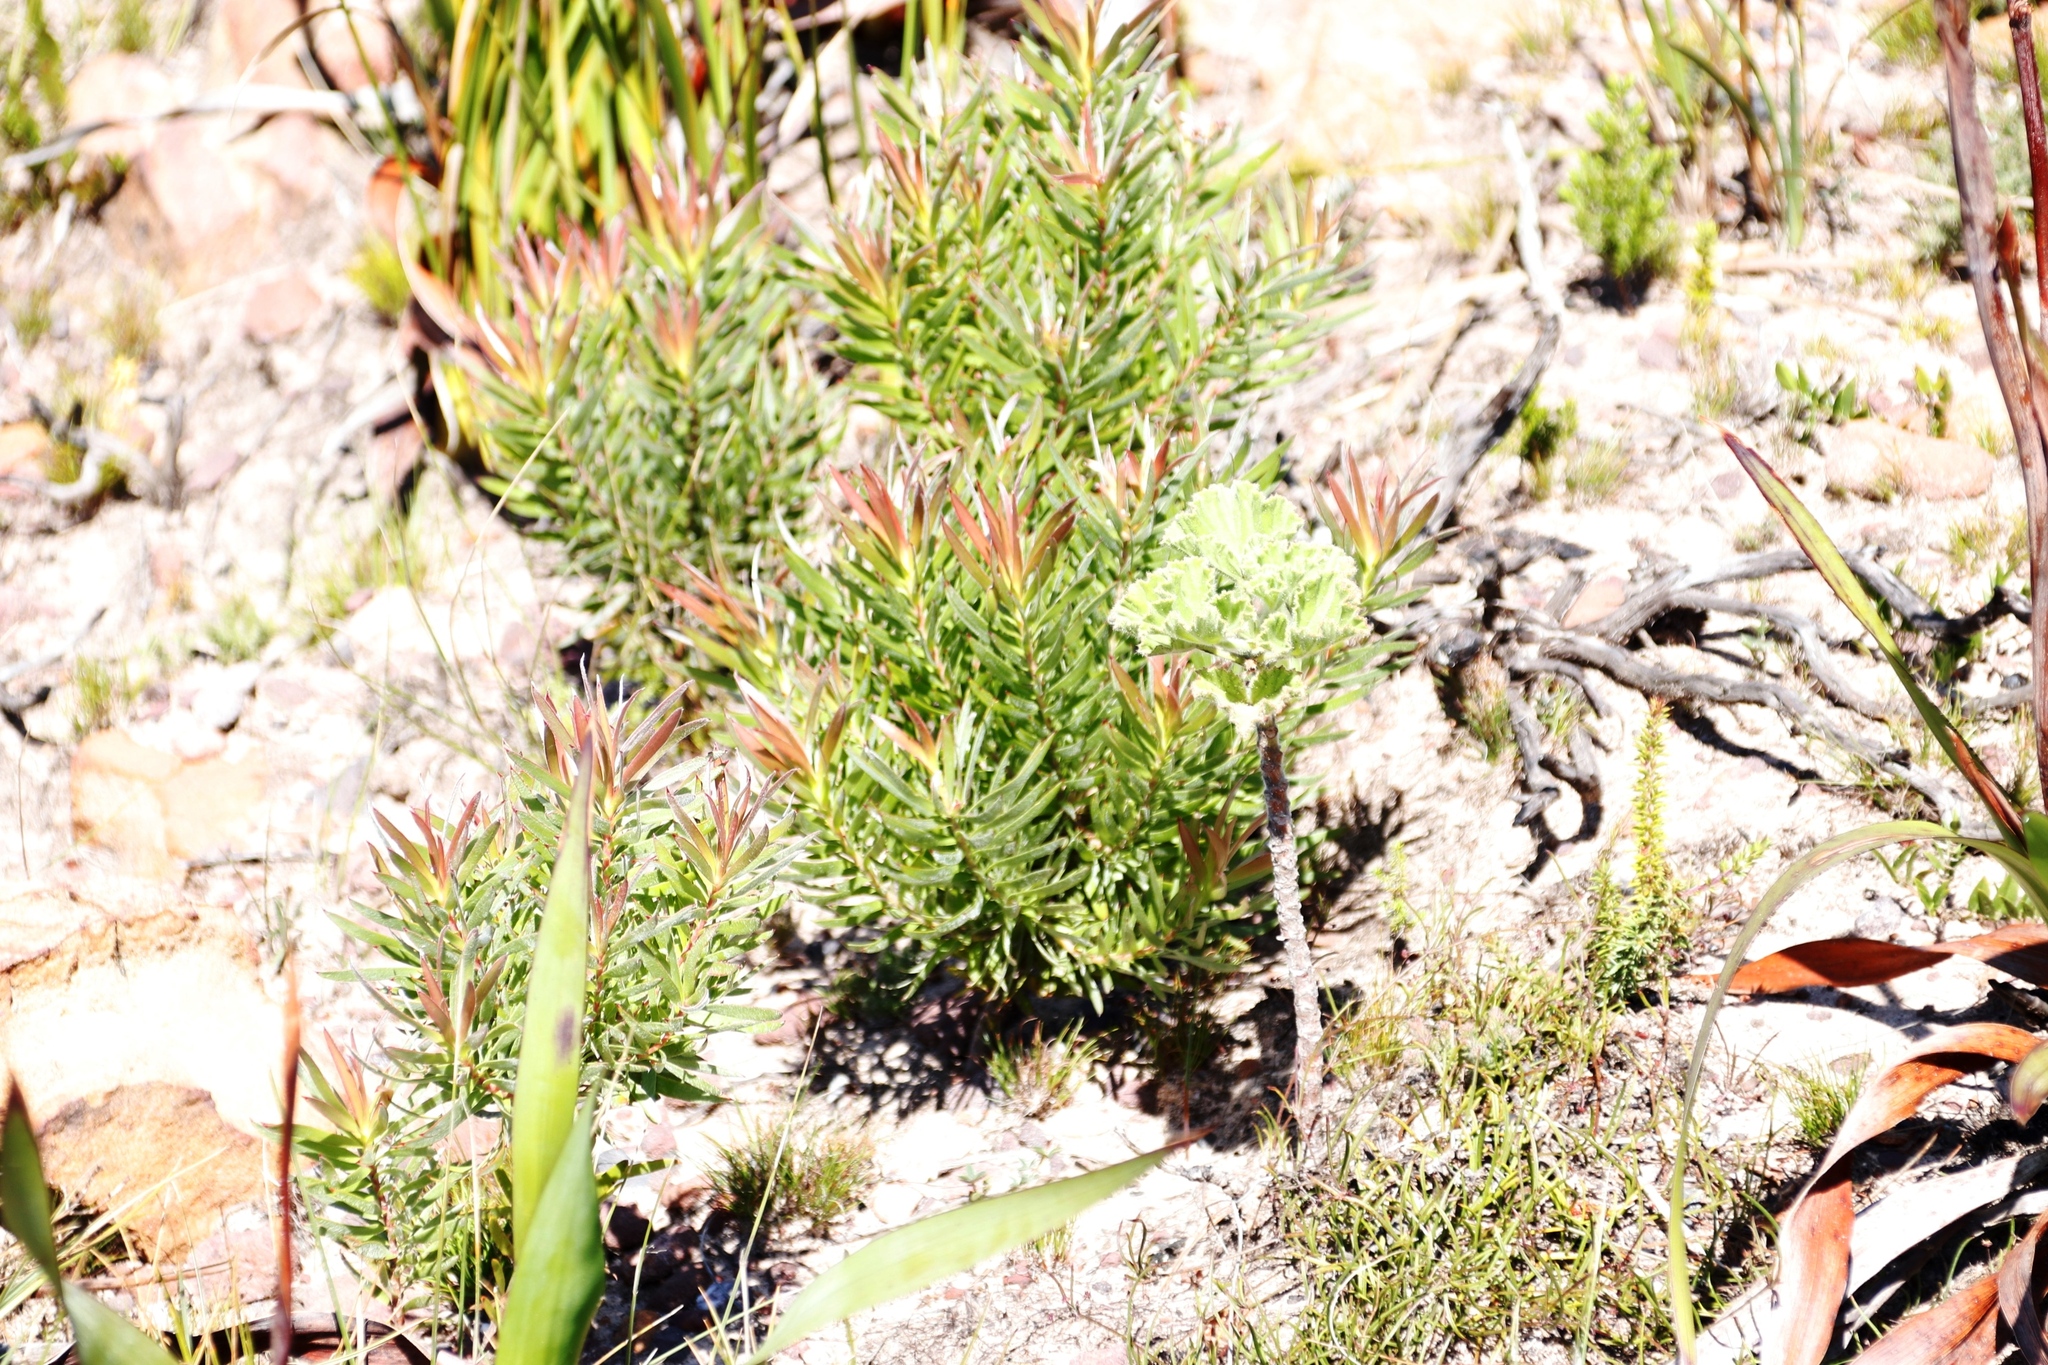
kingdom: Plantae
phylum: Tracheophyta
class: Magnoliopsida
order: Proteales
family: Proteaceae
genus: Leucadendron
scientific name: Leucadendron xanthoconus
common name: Sickle-leaf conebush
